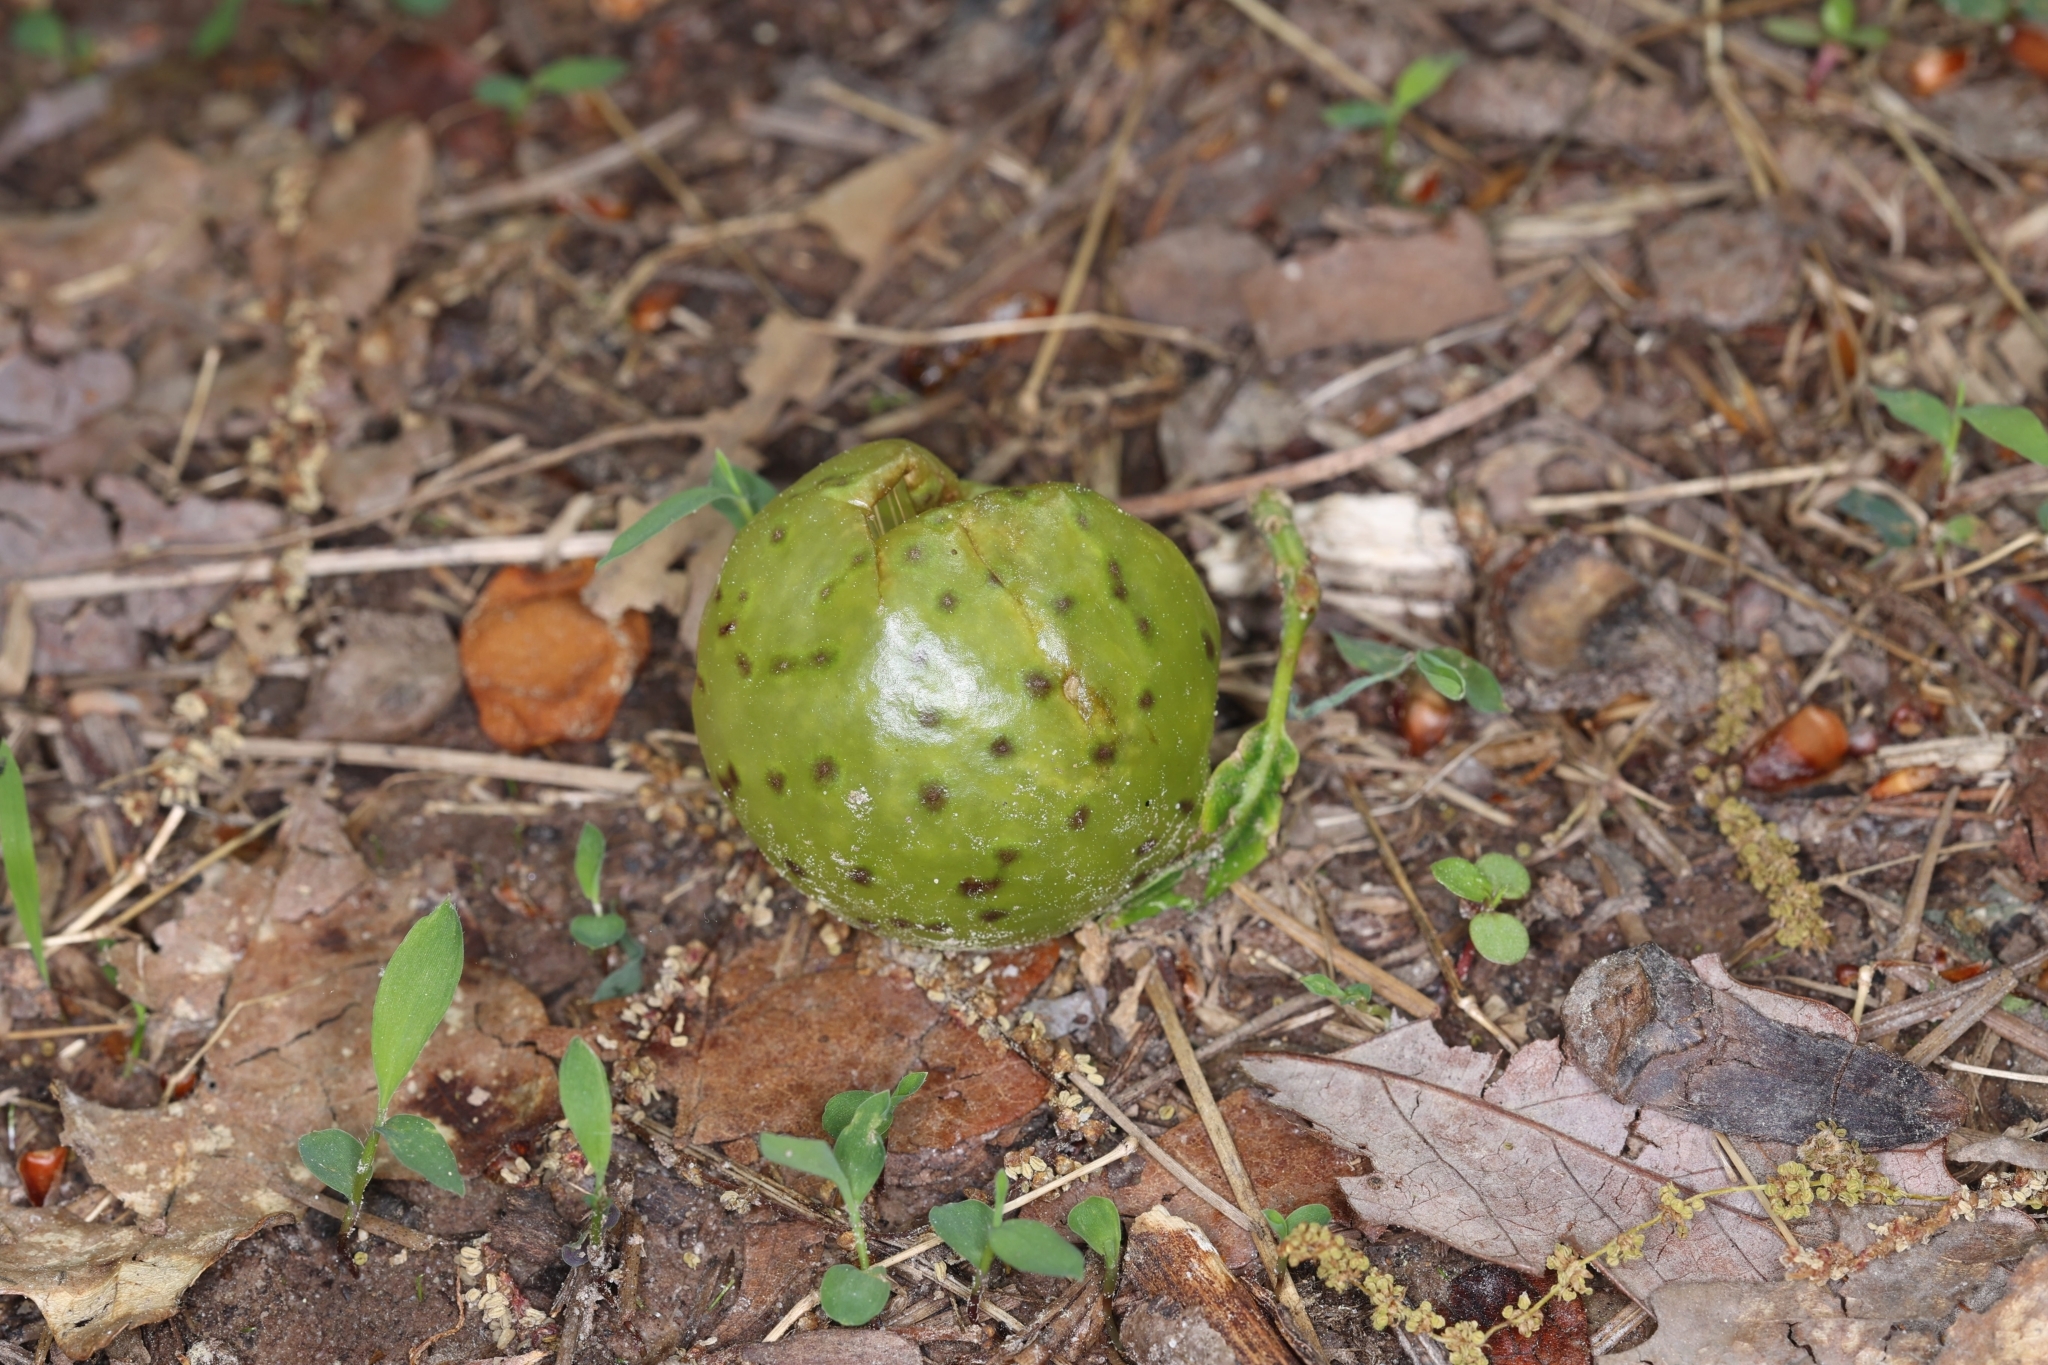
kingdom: Animalia
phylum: Arthropoda
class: Insecta
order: Hymenoptera
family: Cynipidae
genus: Amphibolips
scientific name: Amphibolips
